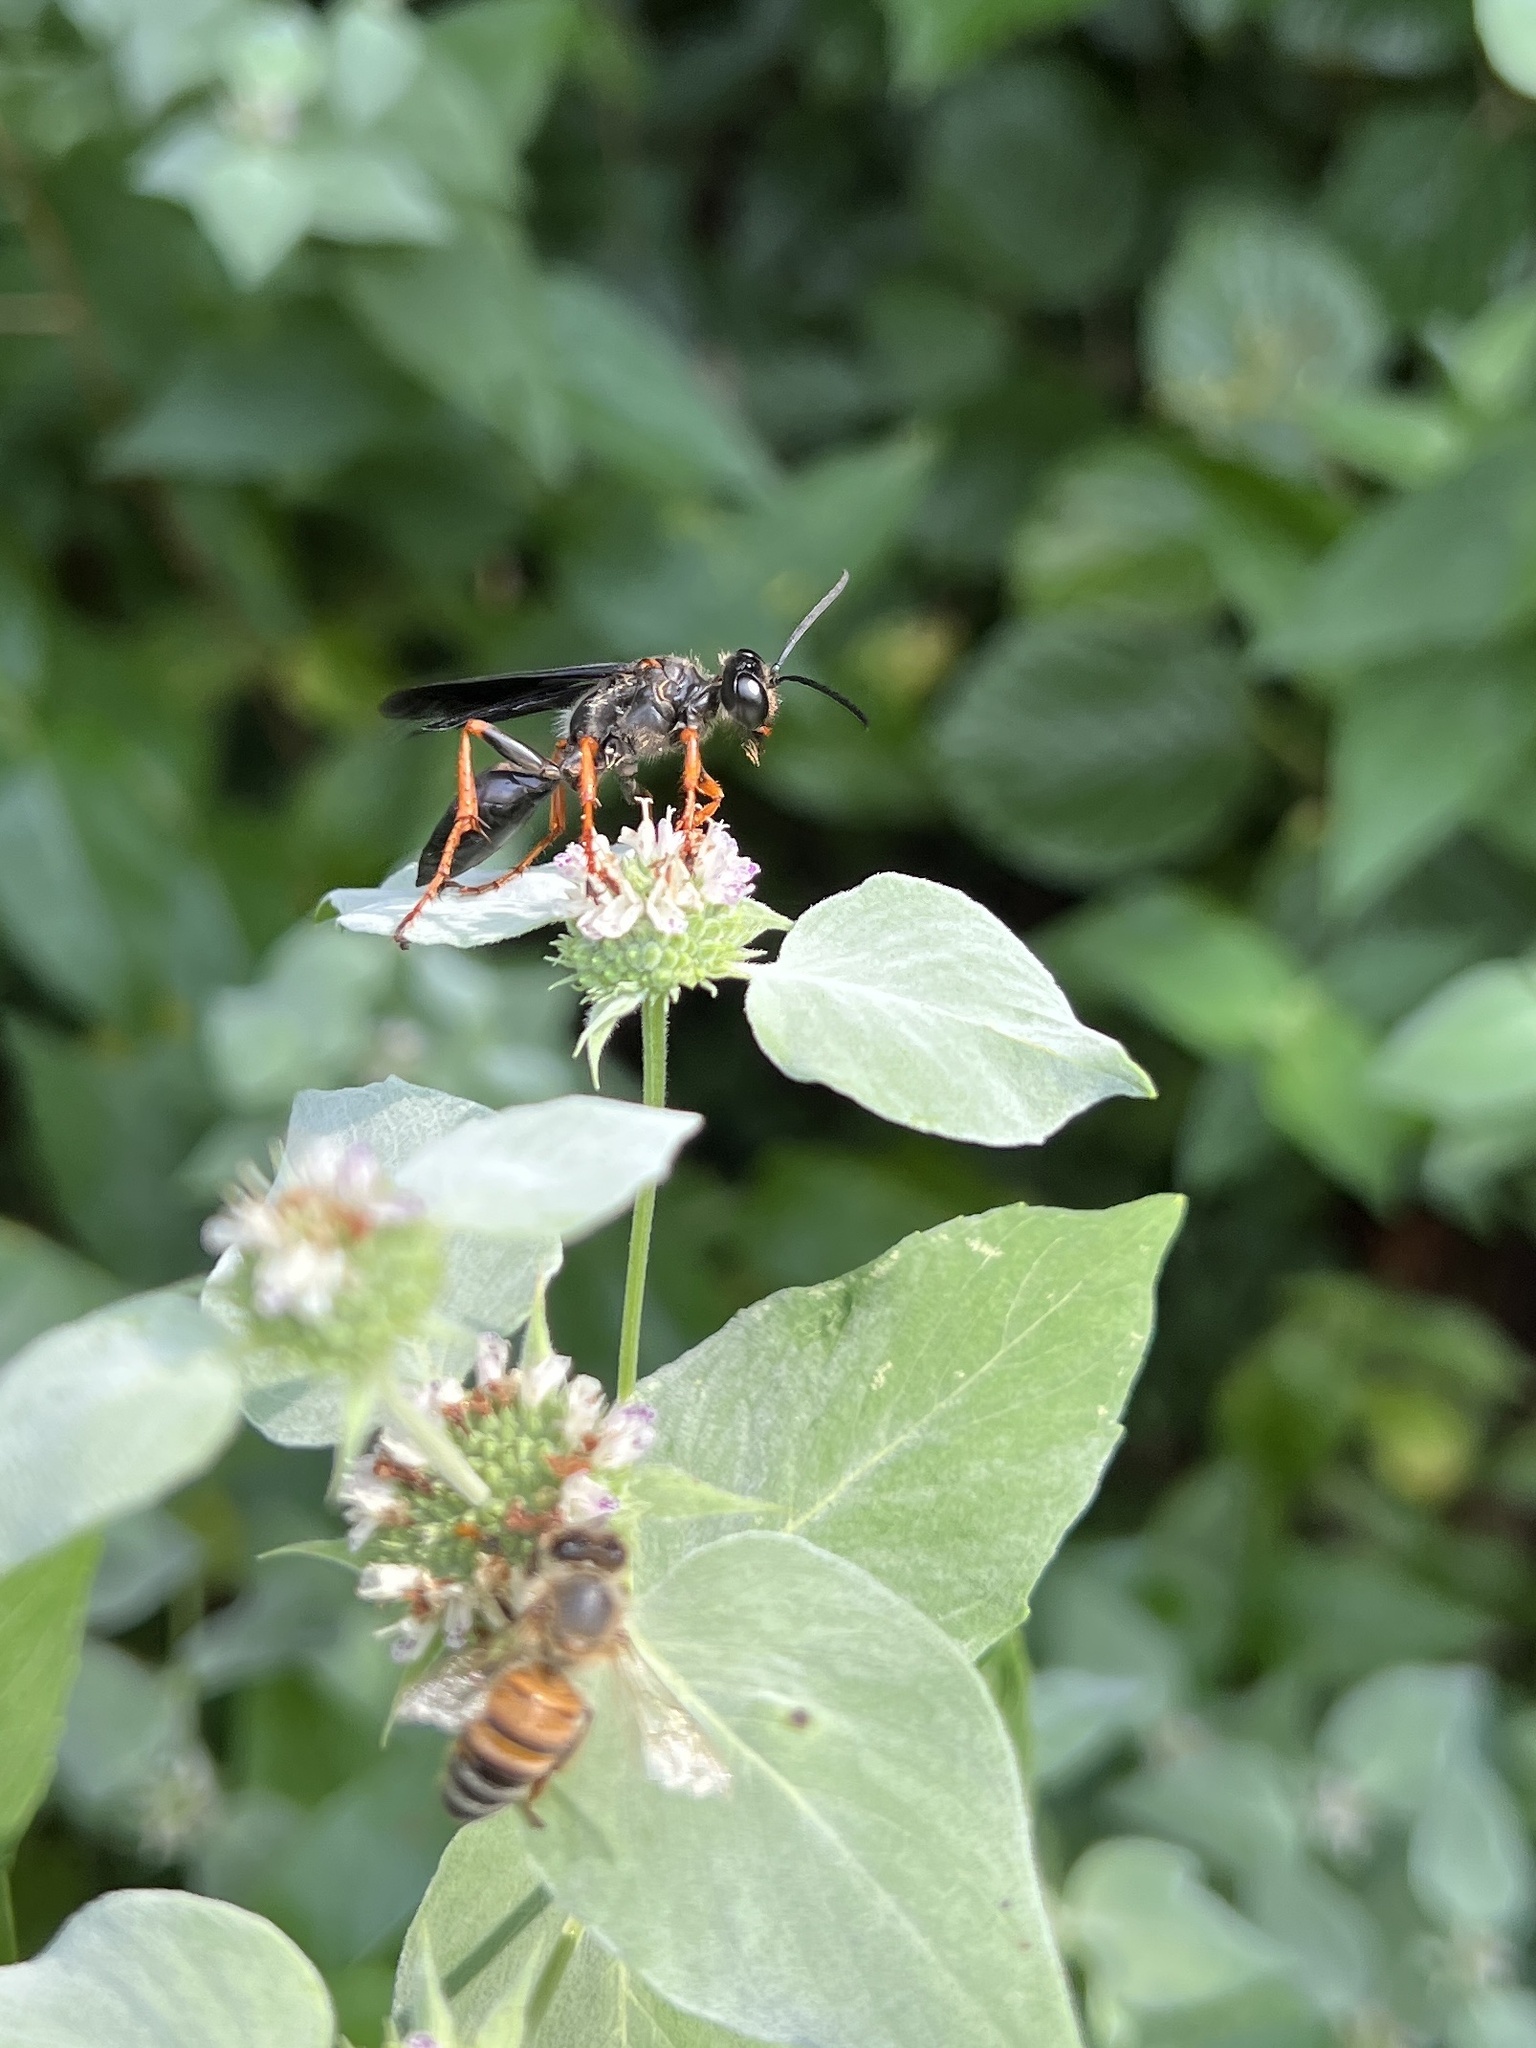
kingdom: Animalia
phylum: Arthropoda
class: Insecta
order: Hymenoptera
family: Sphecidae
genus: Sphex
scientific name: Sphex nudus
